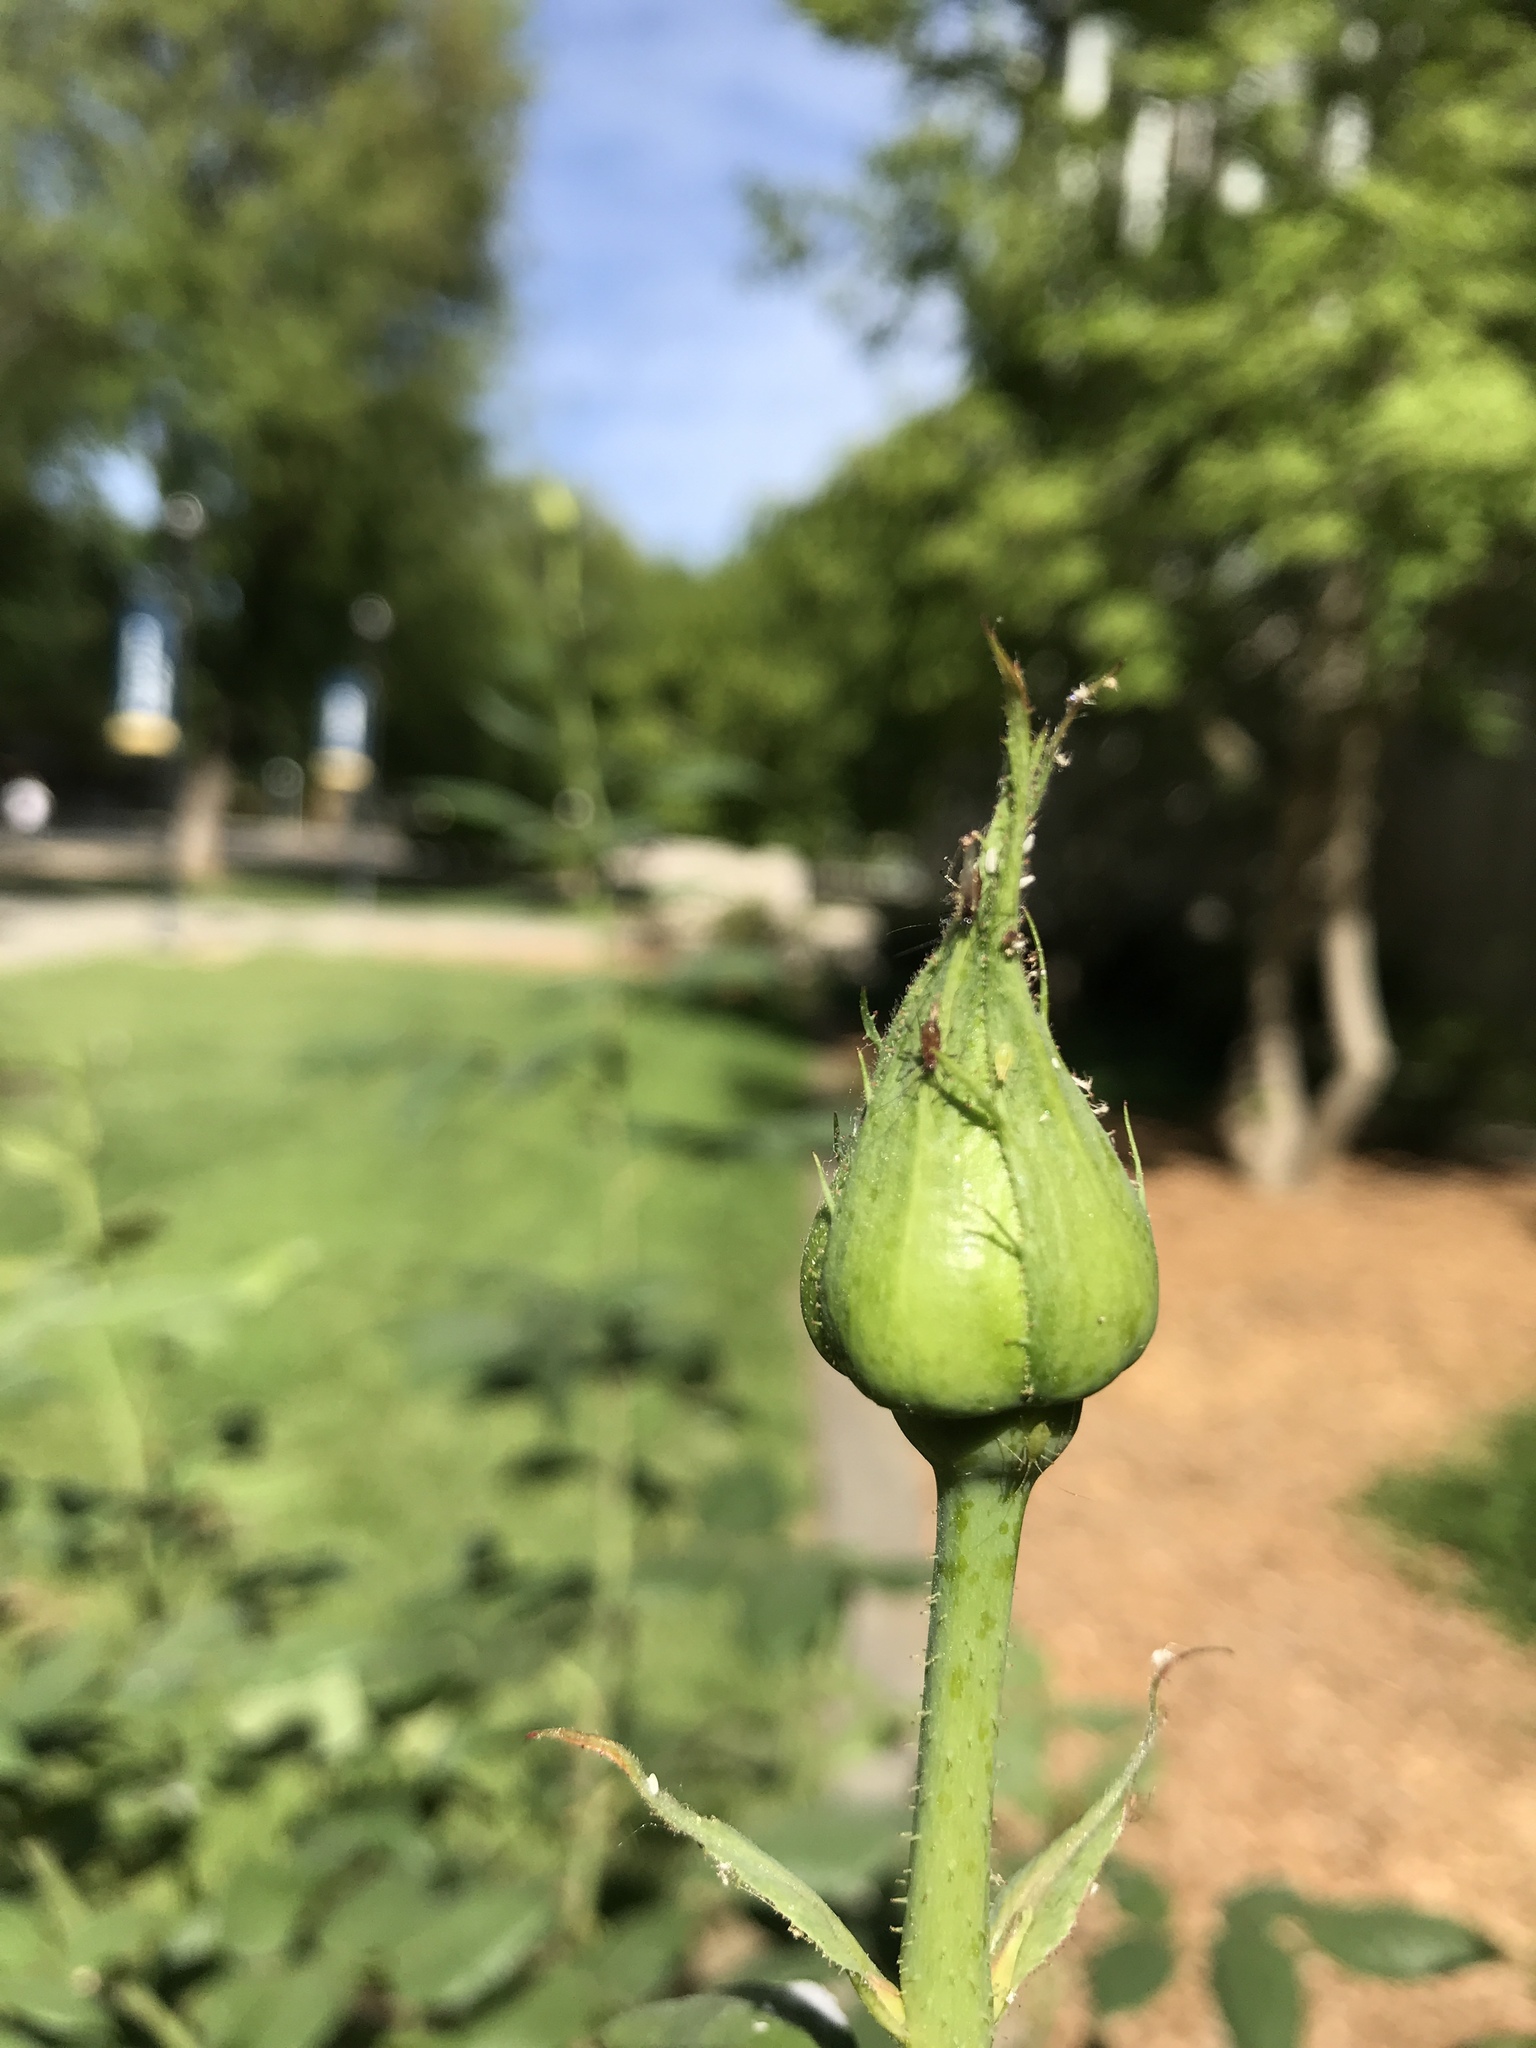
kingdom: Animalia
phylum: Arthropoda
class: Insecta
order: Hemiptera
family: Aphididae
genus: Macrosiphum
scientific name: Macrosiphum rosae
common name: Rose aphid
